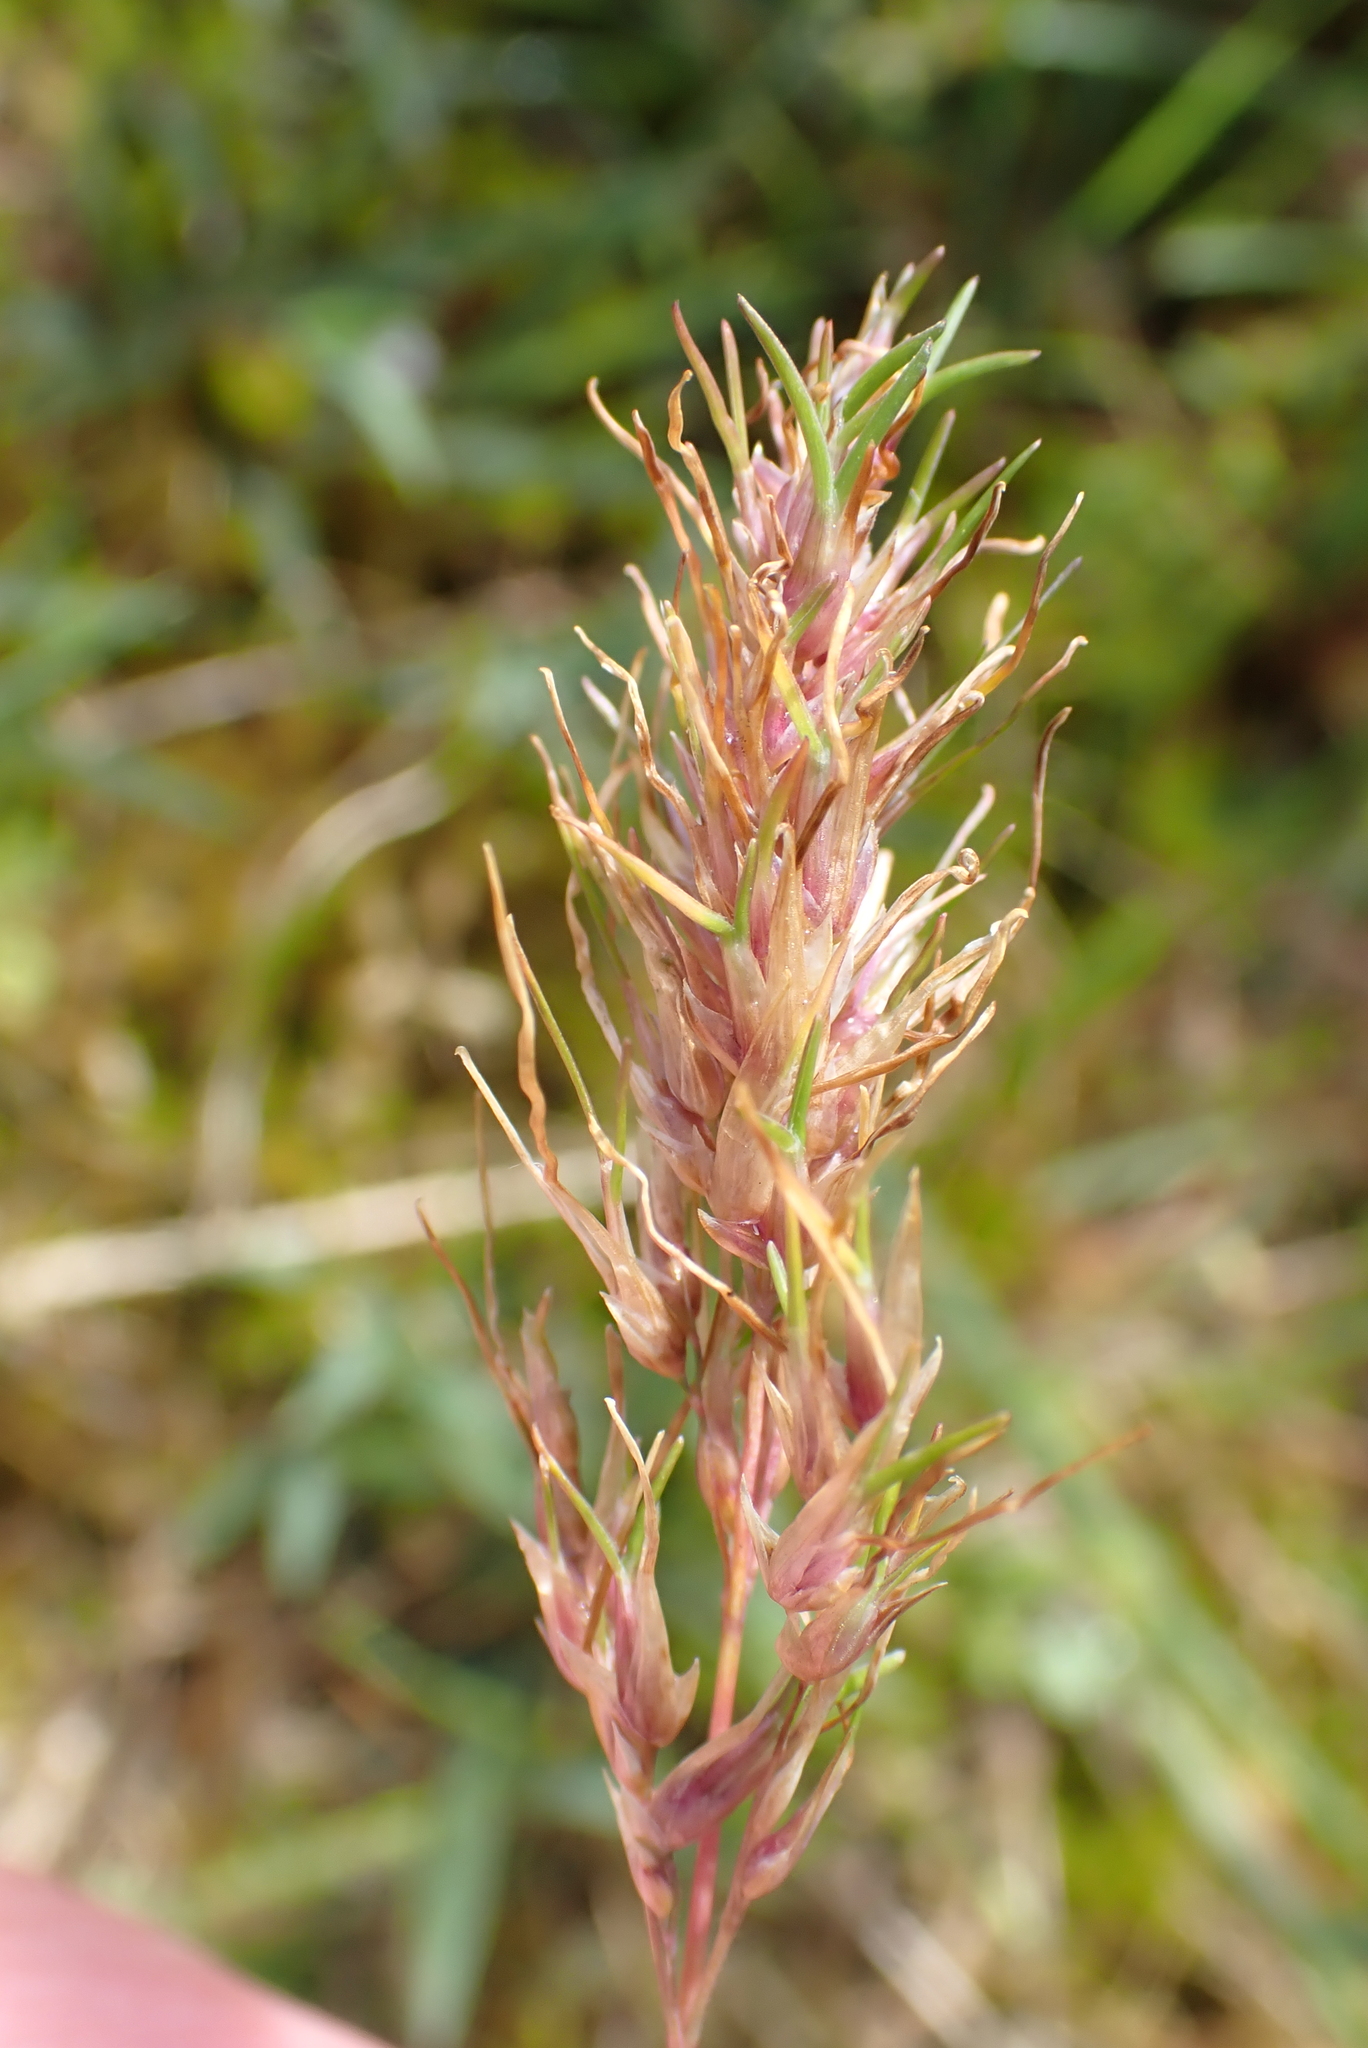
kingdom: Plantae
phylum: Tracheophyta
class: Liliopsida
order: Poales
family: Poaceae
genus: Poa
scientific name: Poa bulbosa
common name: Bulbous bluegrass
